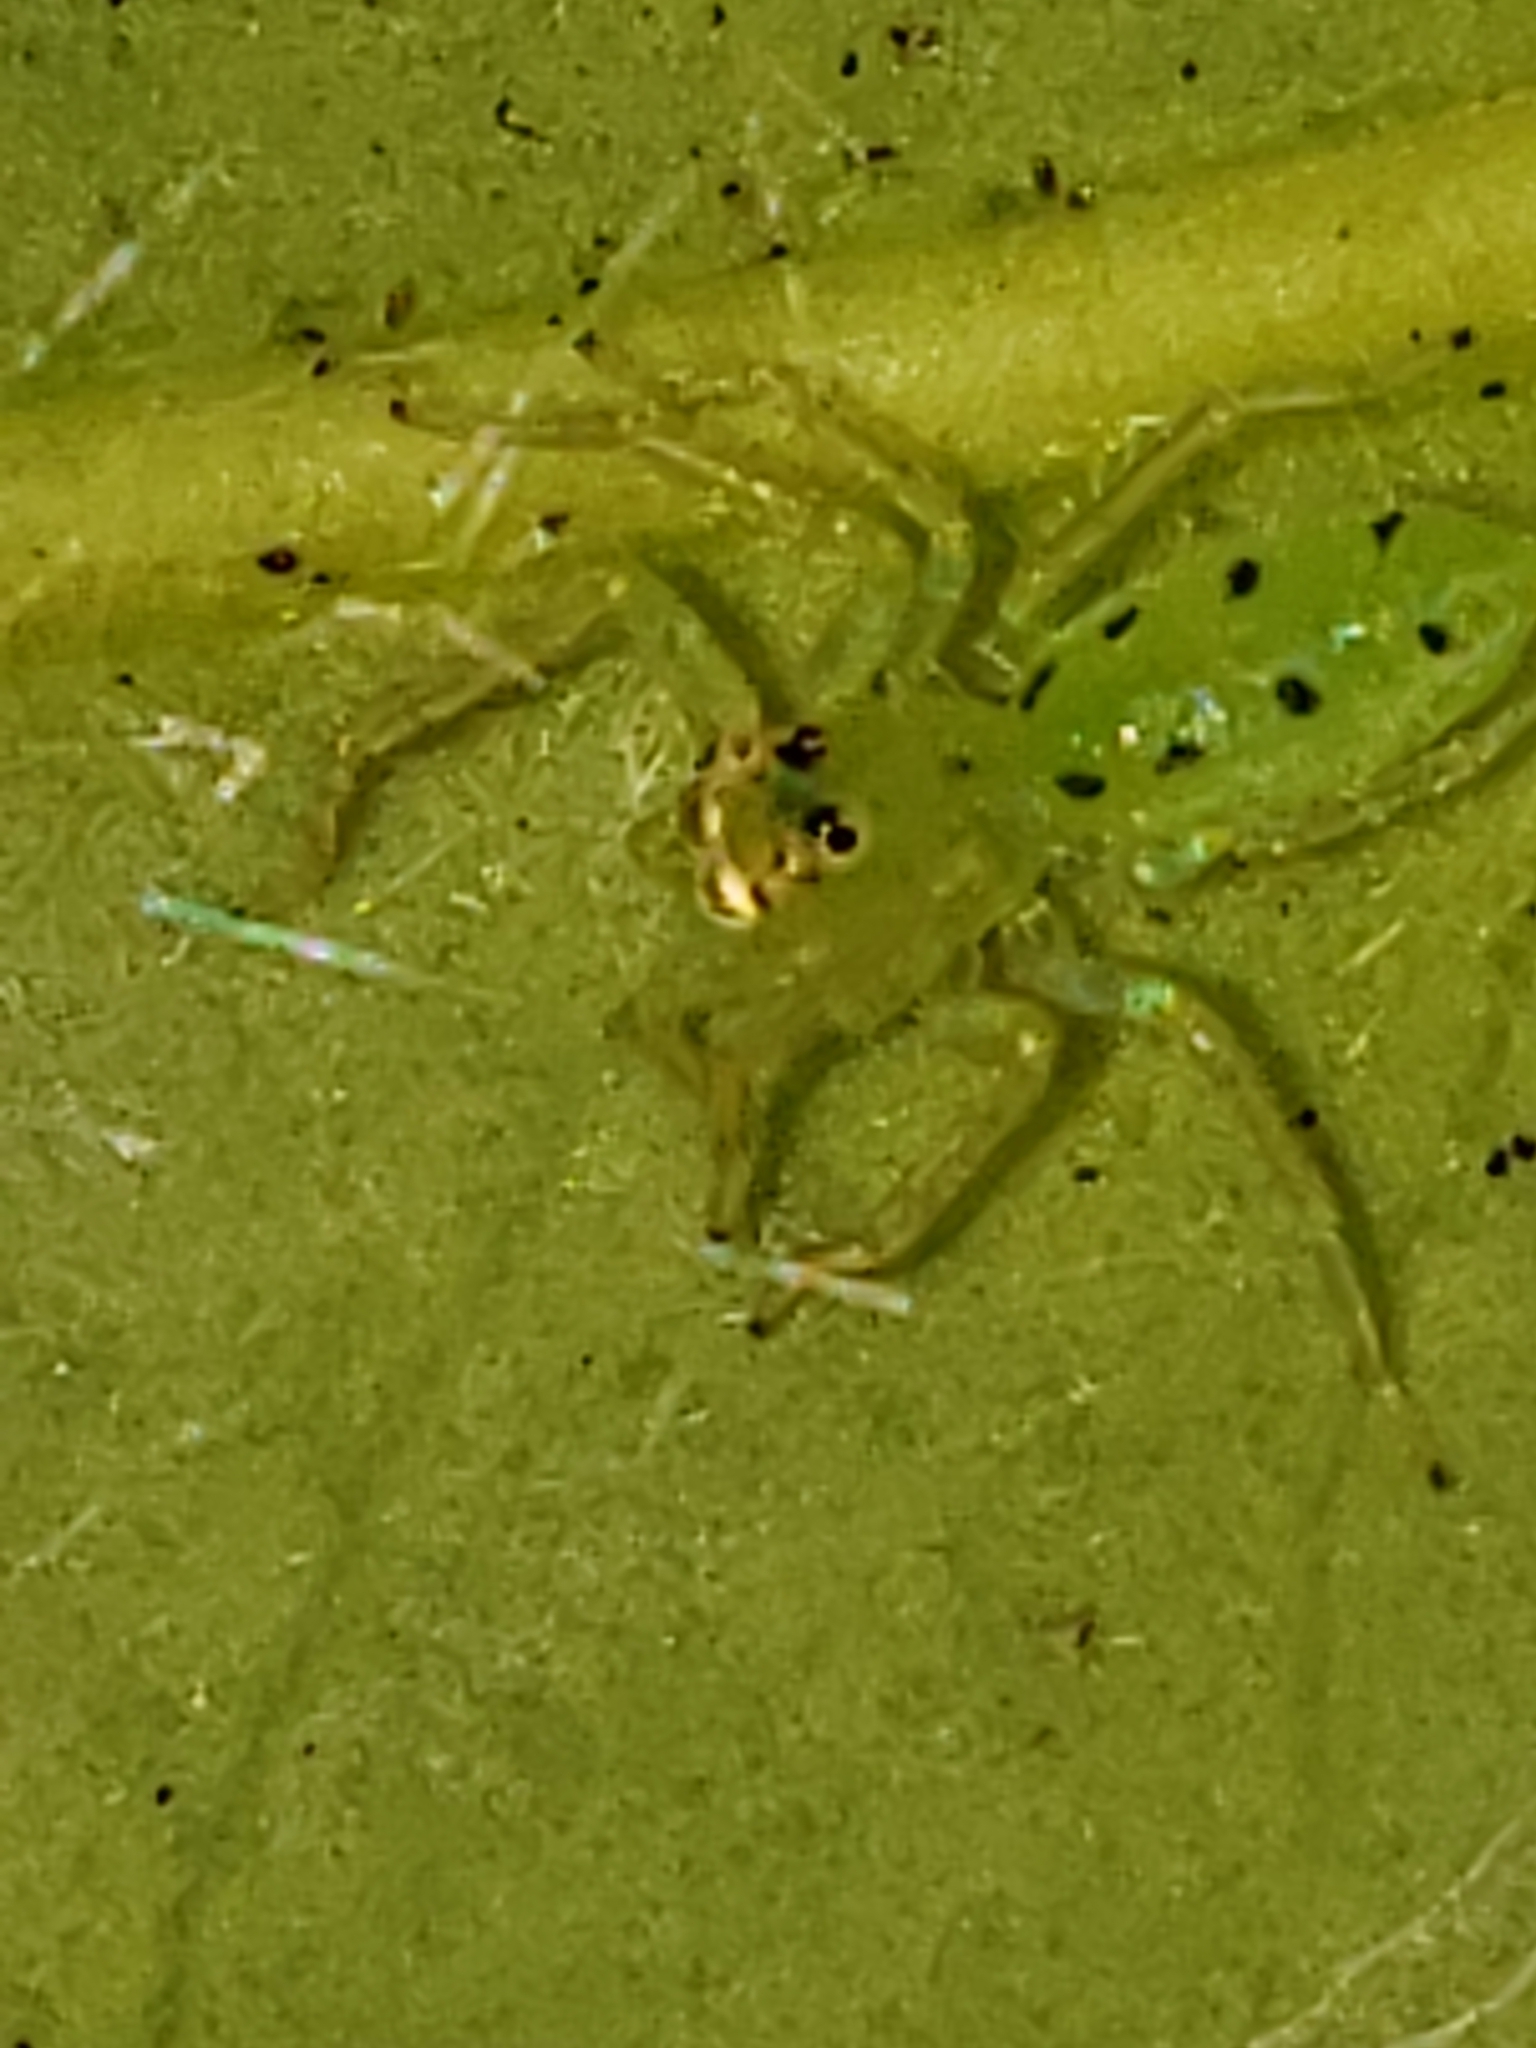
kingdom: Animalia
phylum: Arthropoda
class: Arachnida
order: Araneae
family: Salticidae
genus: Lyssomanes
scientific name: Lyssomanes viridis
